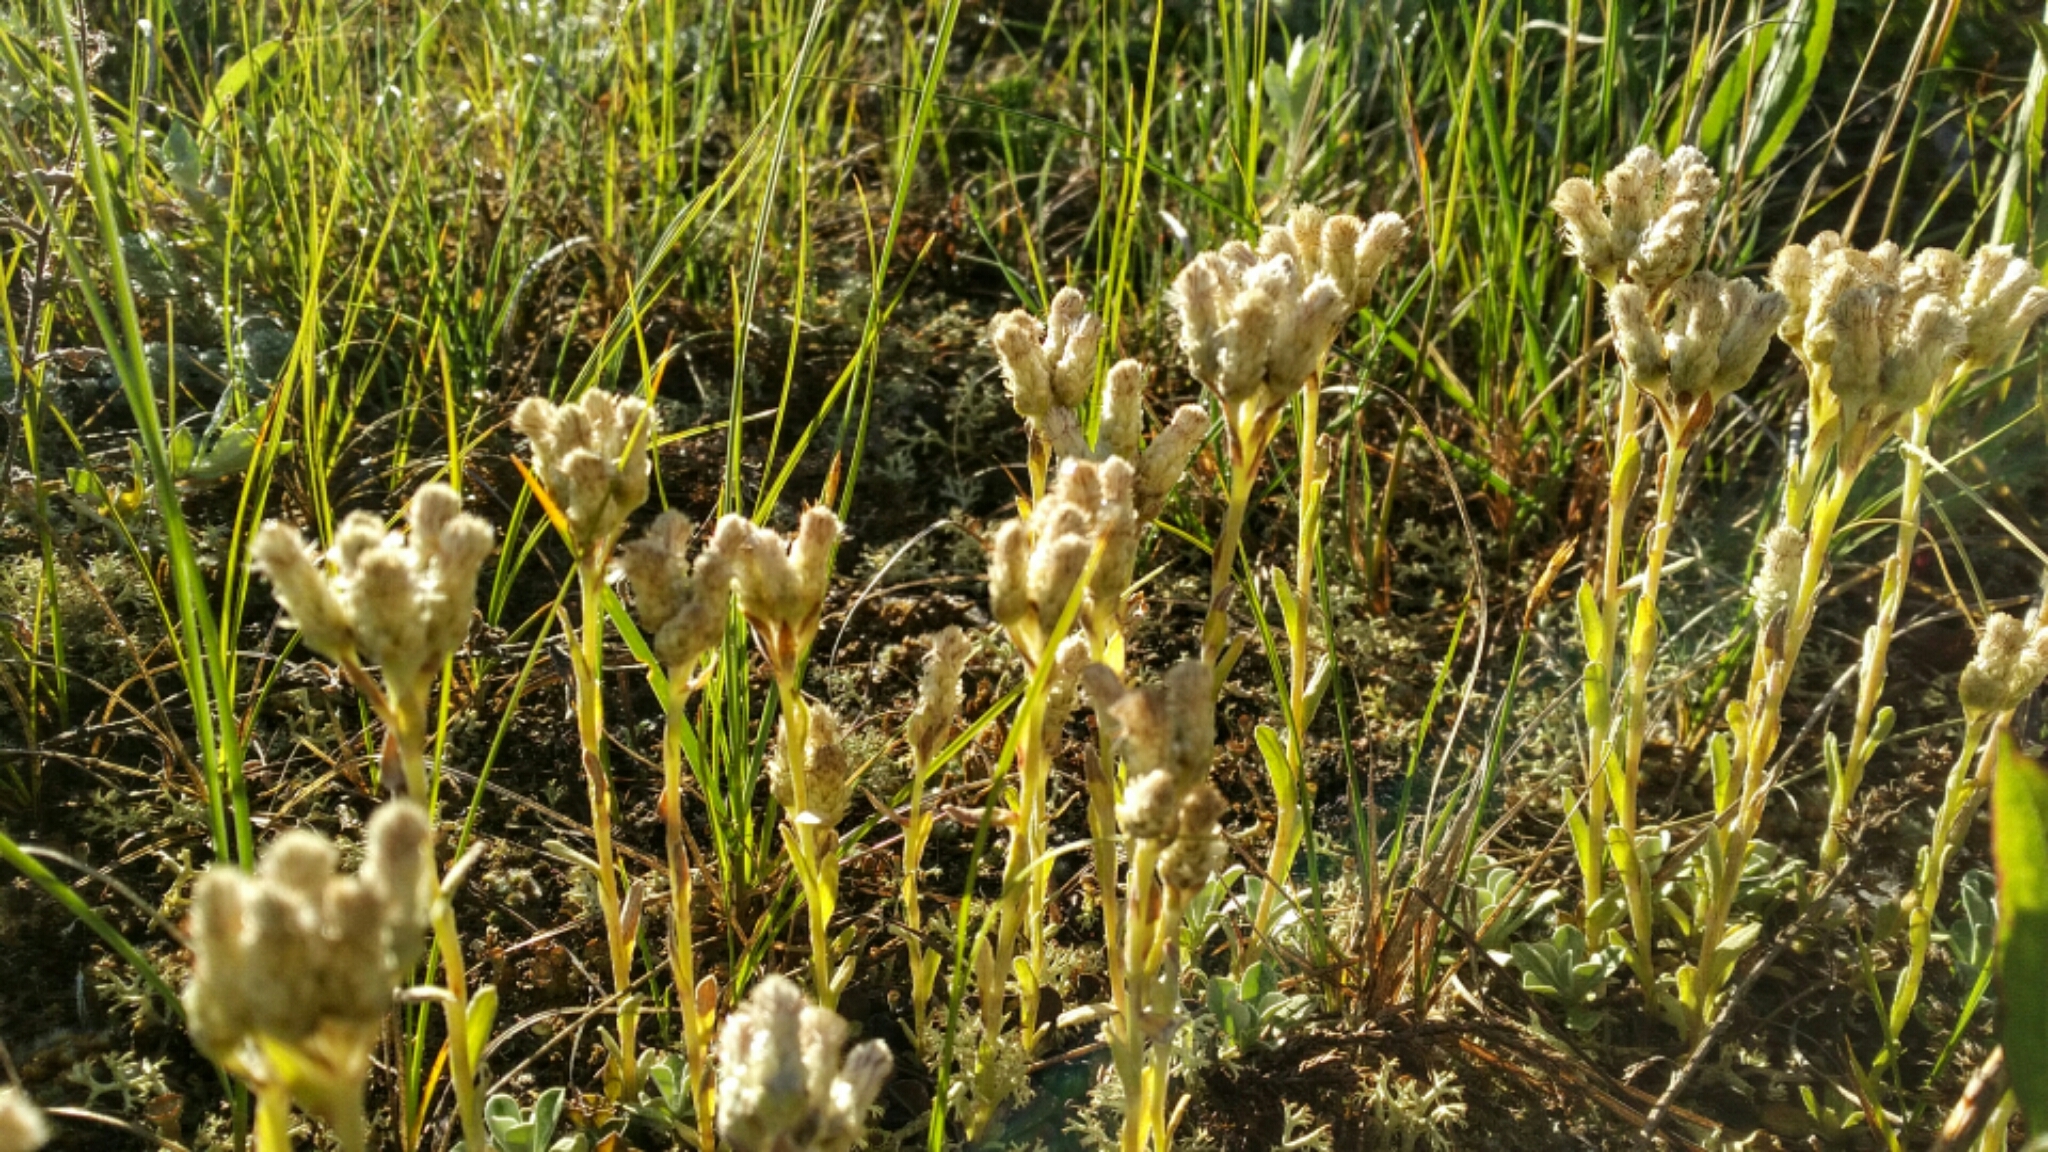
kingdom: Plantae
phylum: Tracheophyta
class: Magnoliopsida
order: Asterales
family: Asteraceae
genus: Antennaria
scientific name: Antennaria parvifolia
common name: Nuttall's pussytoes
